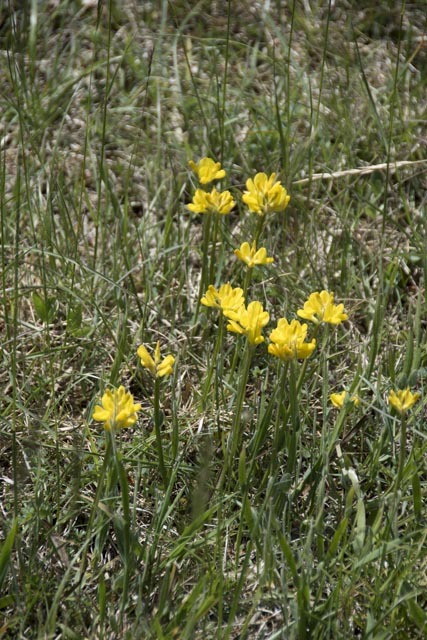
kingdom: Plantae
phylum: Tracheophyta
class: Magnoliopsida
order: Fabales
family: Fabaceae
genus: Genista
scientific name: Genista sagittalis
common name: Winged greenweed
